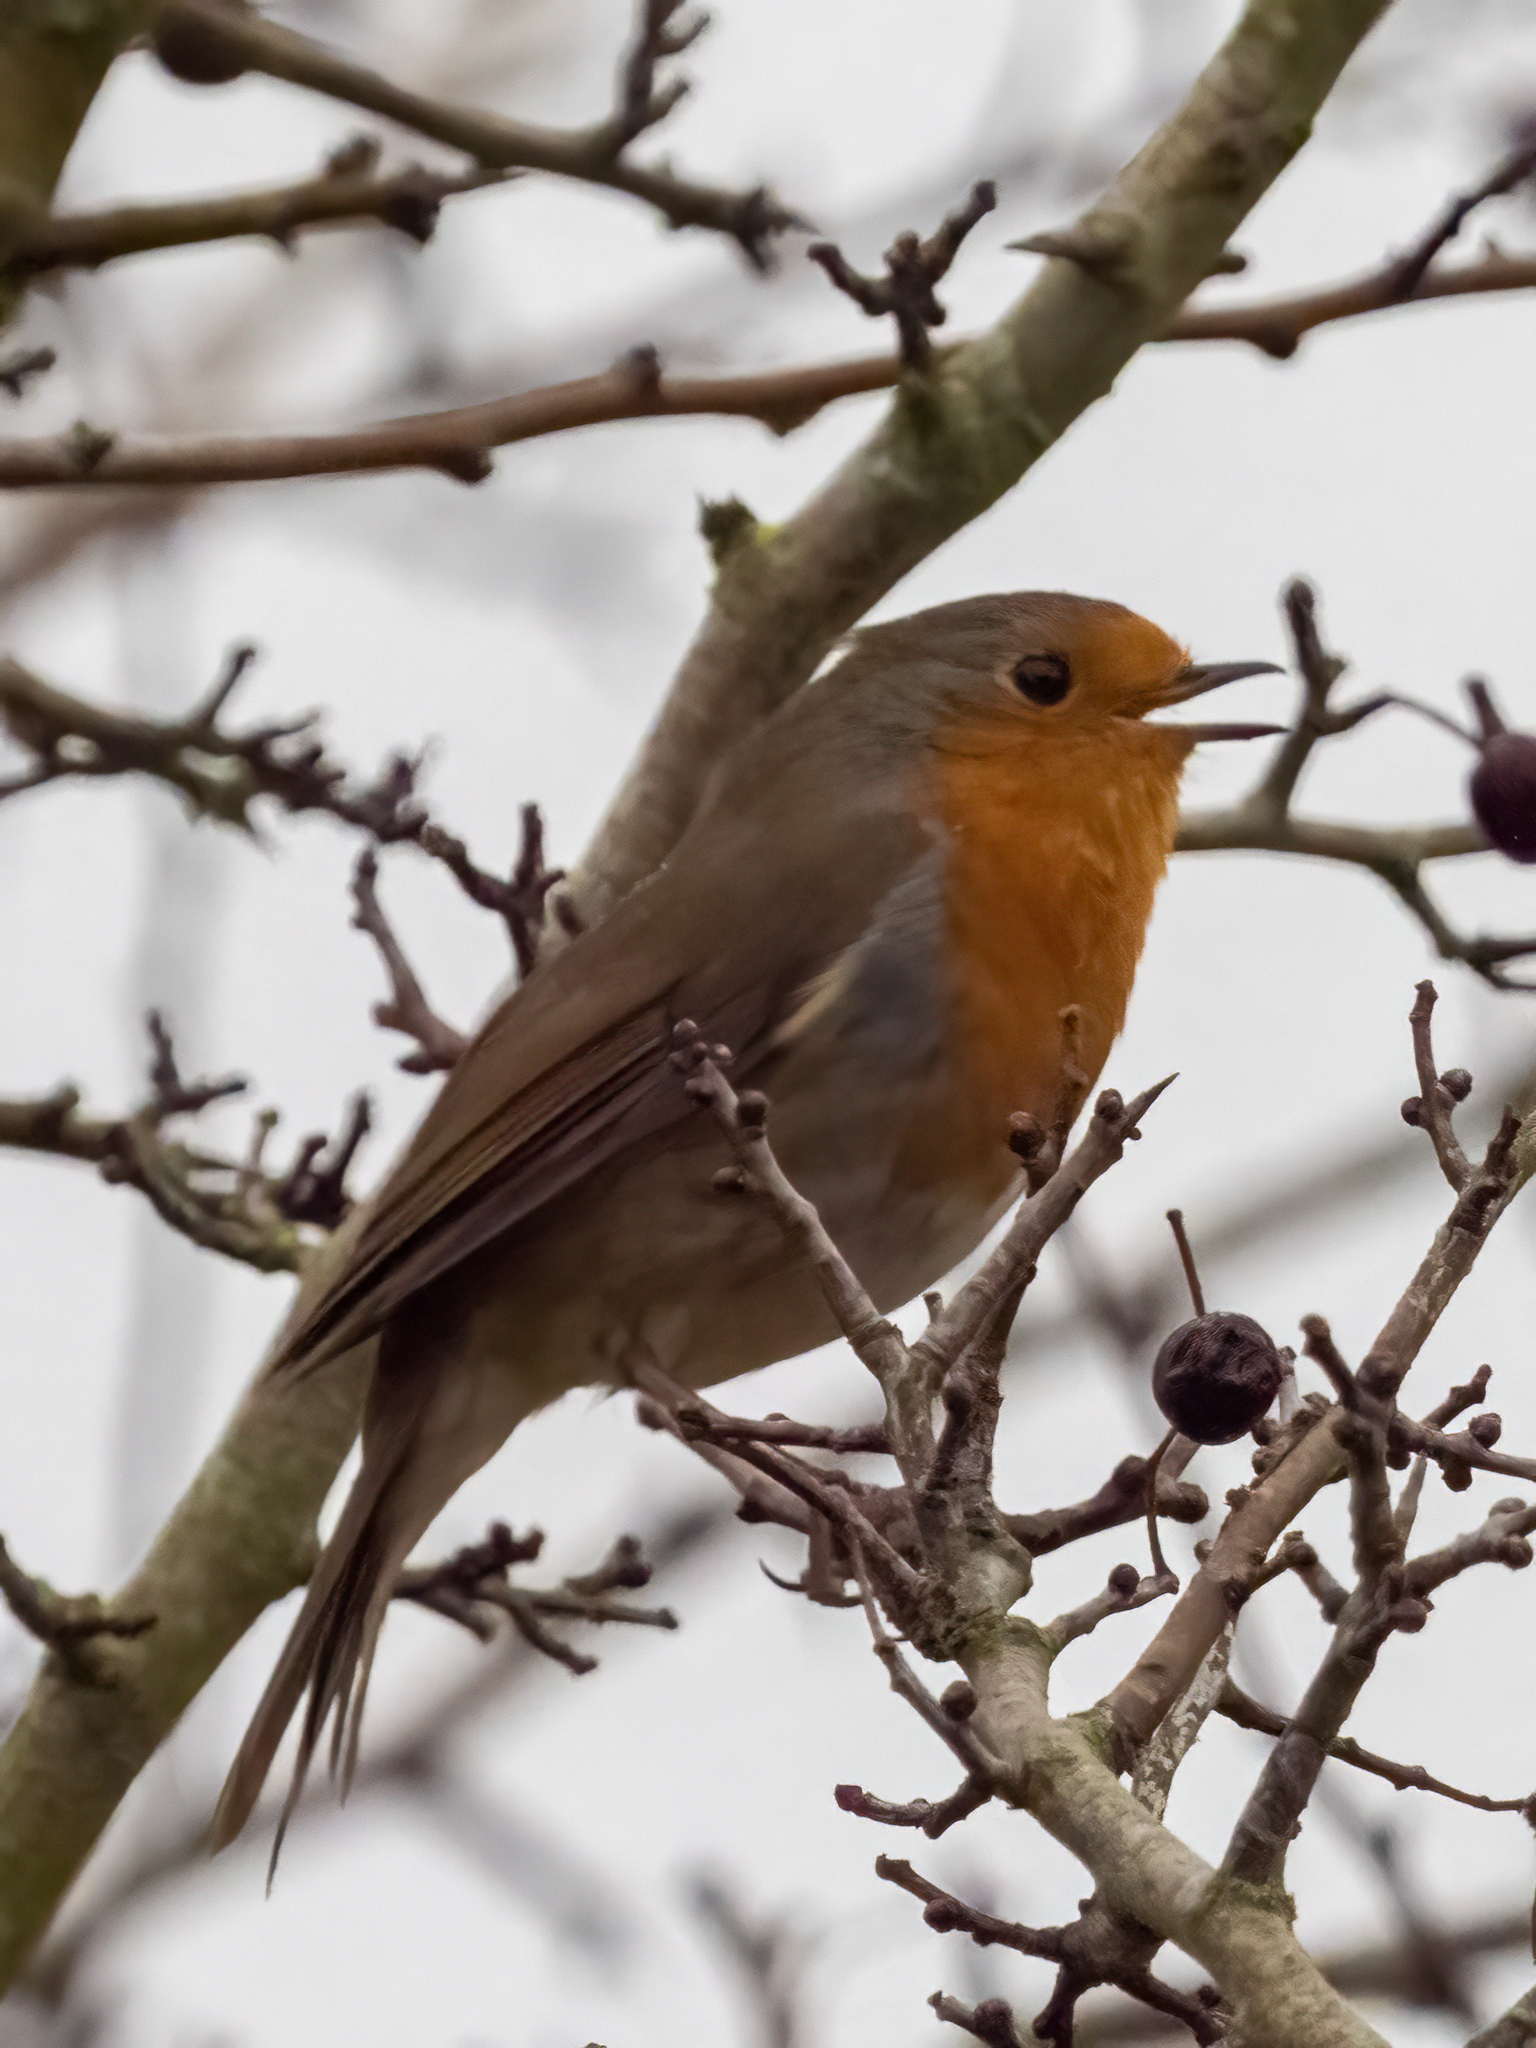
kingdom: Animalia
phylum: Chordata
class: Aves
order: Passeriformes
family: Muscicapidae
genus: Erithacus
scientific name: Erithacus rubecula
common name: European robin
